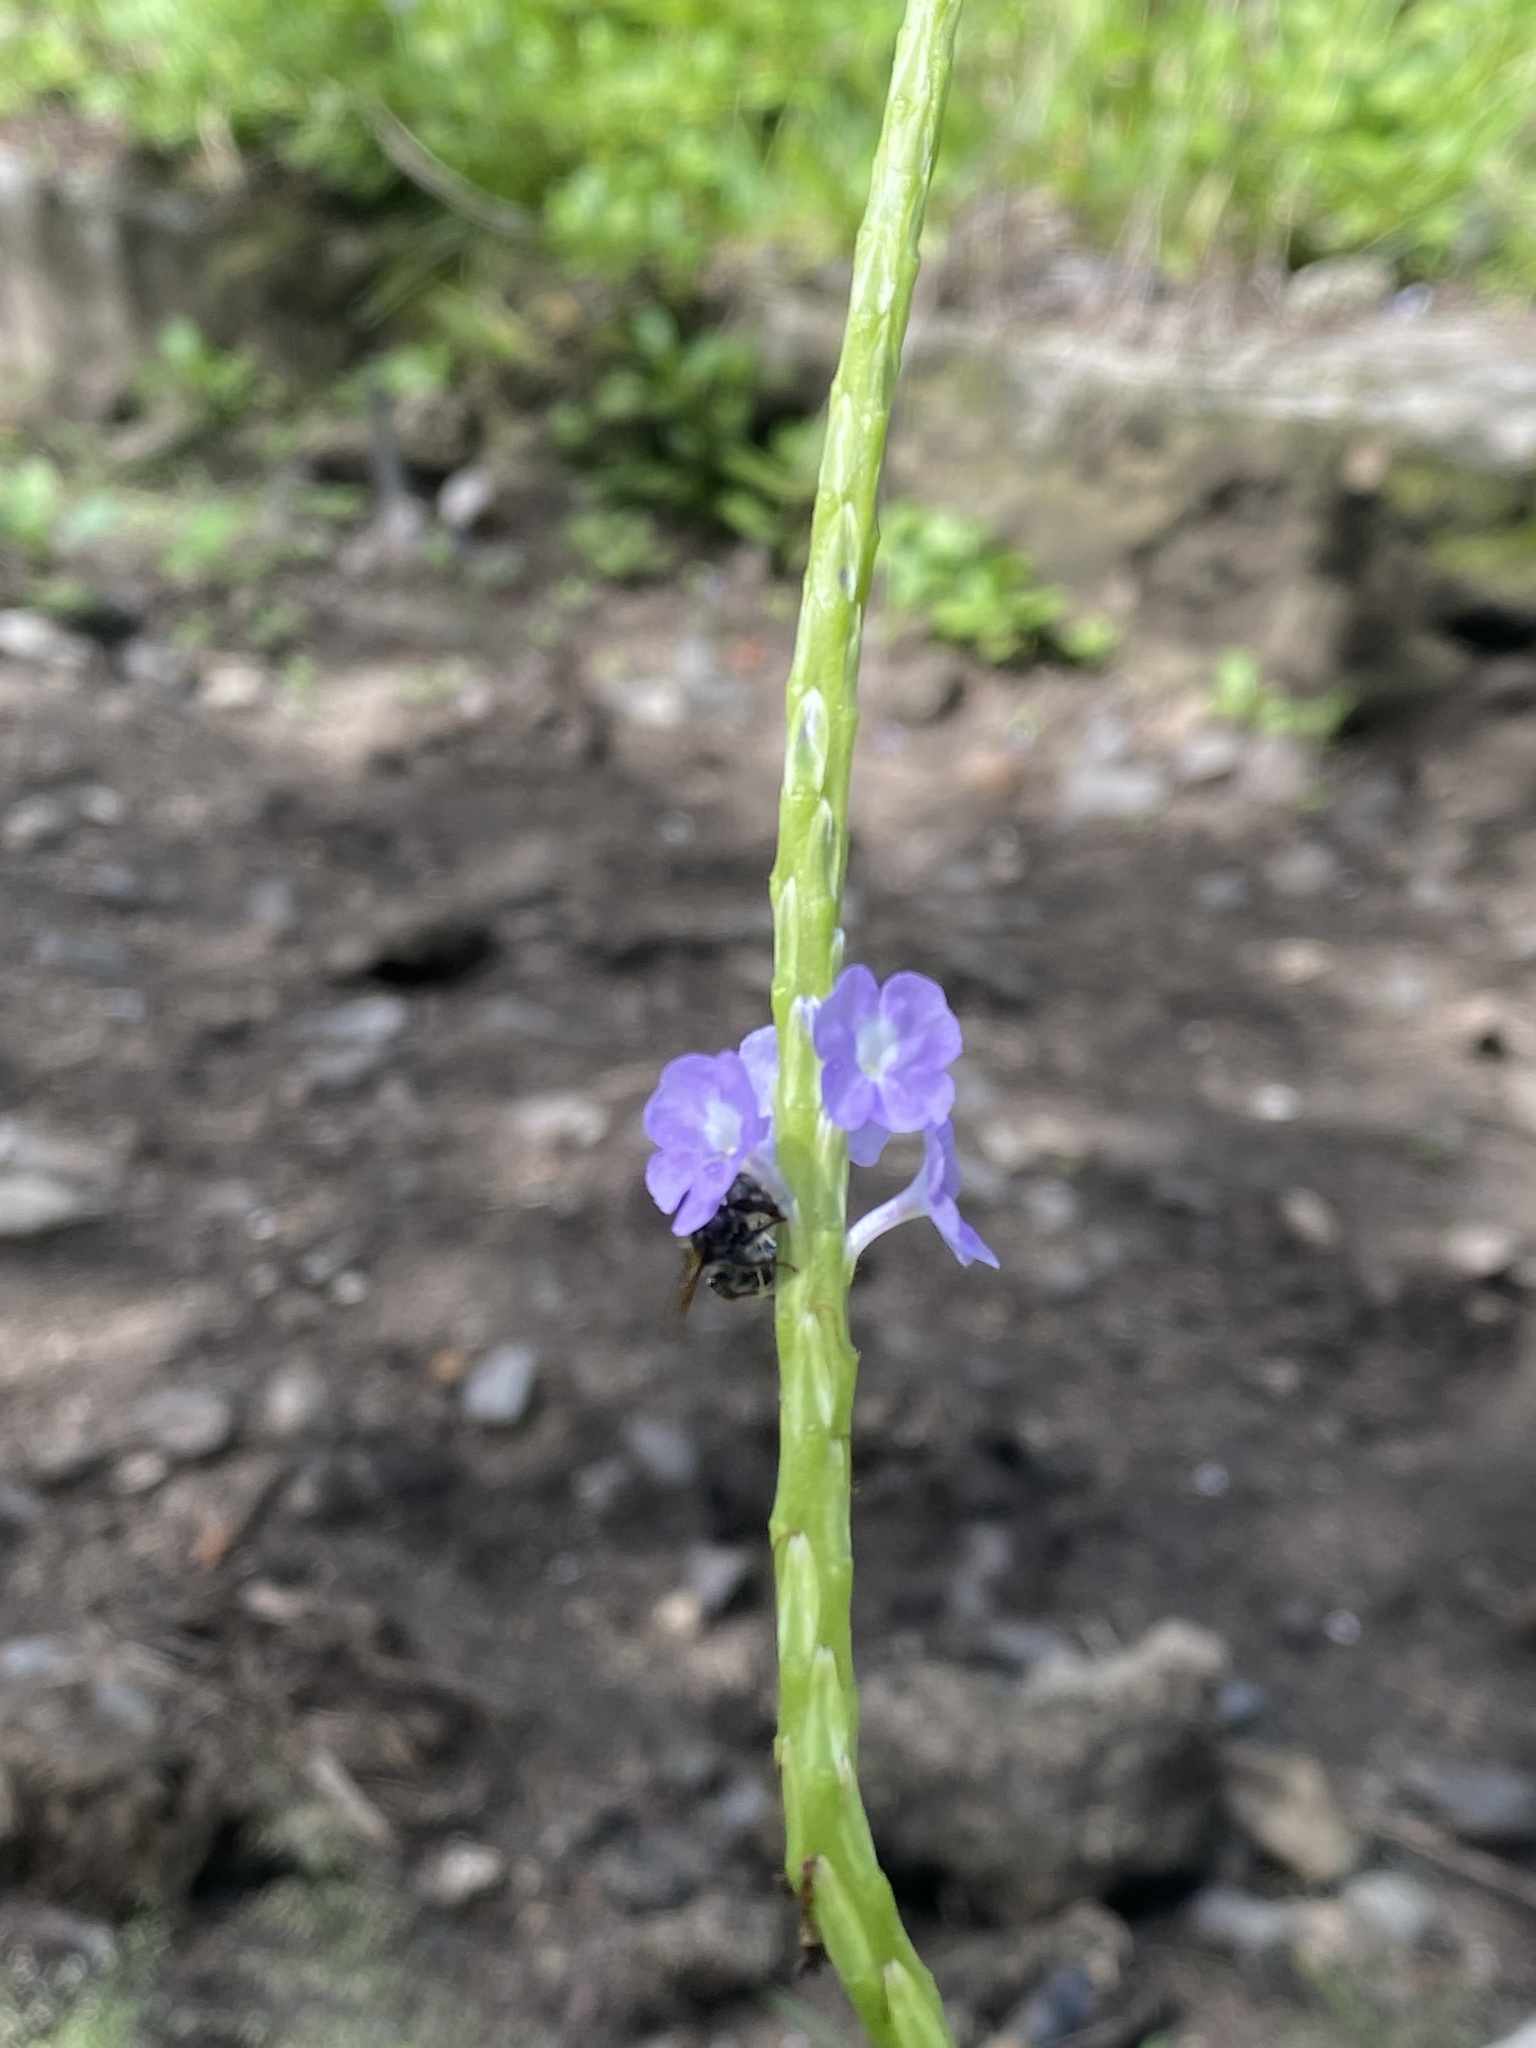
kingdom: Plantae
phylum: Tracheophyta
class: Magnoliopsida
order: Lamiales
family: Verbenaceae
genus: Stachytarpheta
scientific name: Stachytarpheta jamaicensis
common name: Light-blue snakeweed
